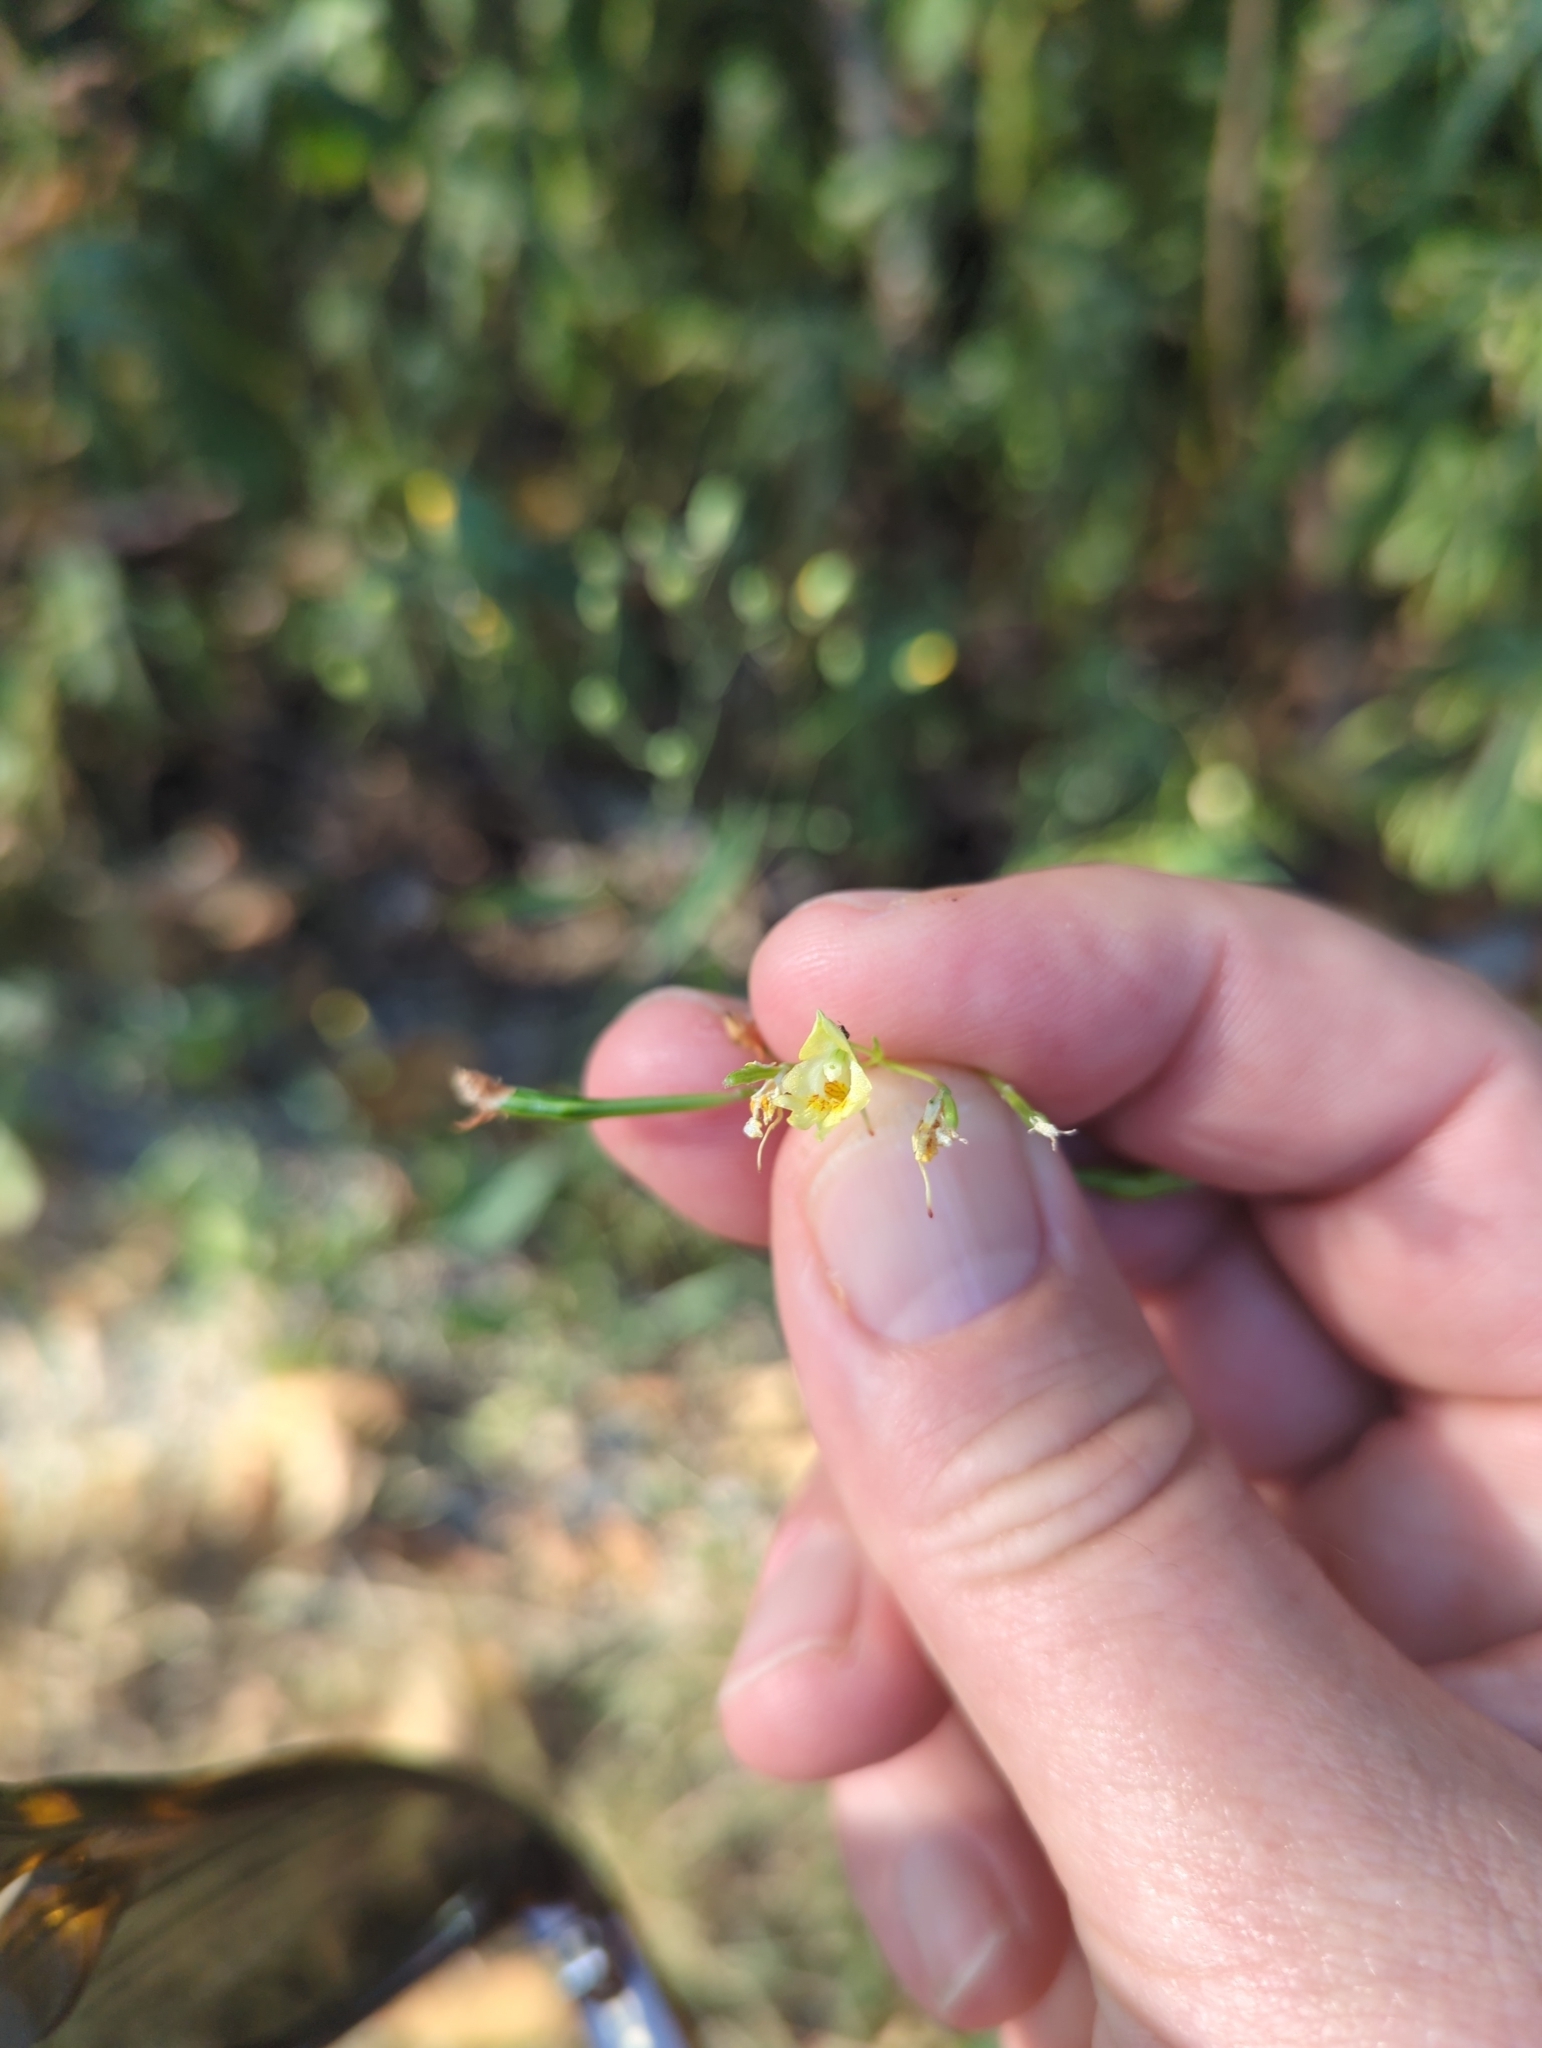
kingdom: Plantae
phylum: Tracheophyta
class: Magnoliopsida
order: Ericales
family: Balsaminaceae
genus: Impatiens
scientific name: Impatiens parviflora
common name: Small balsam
